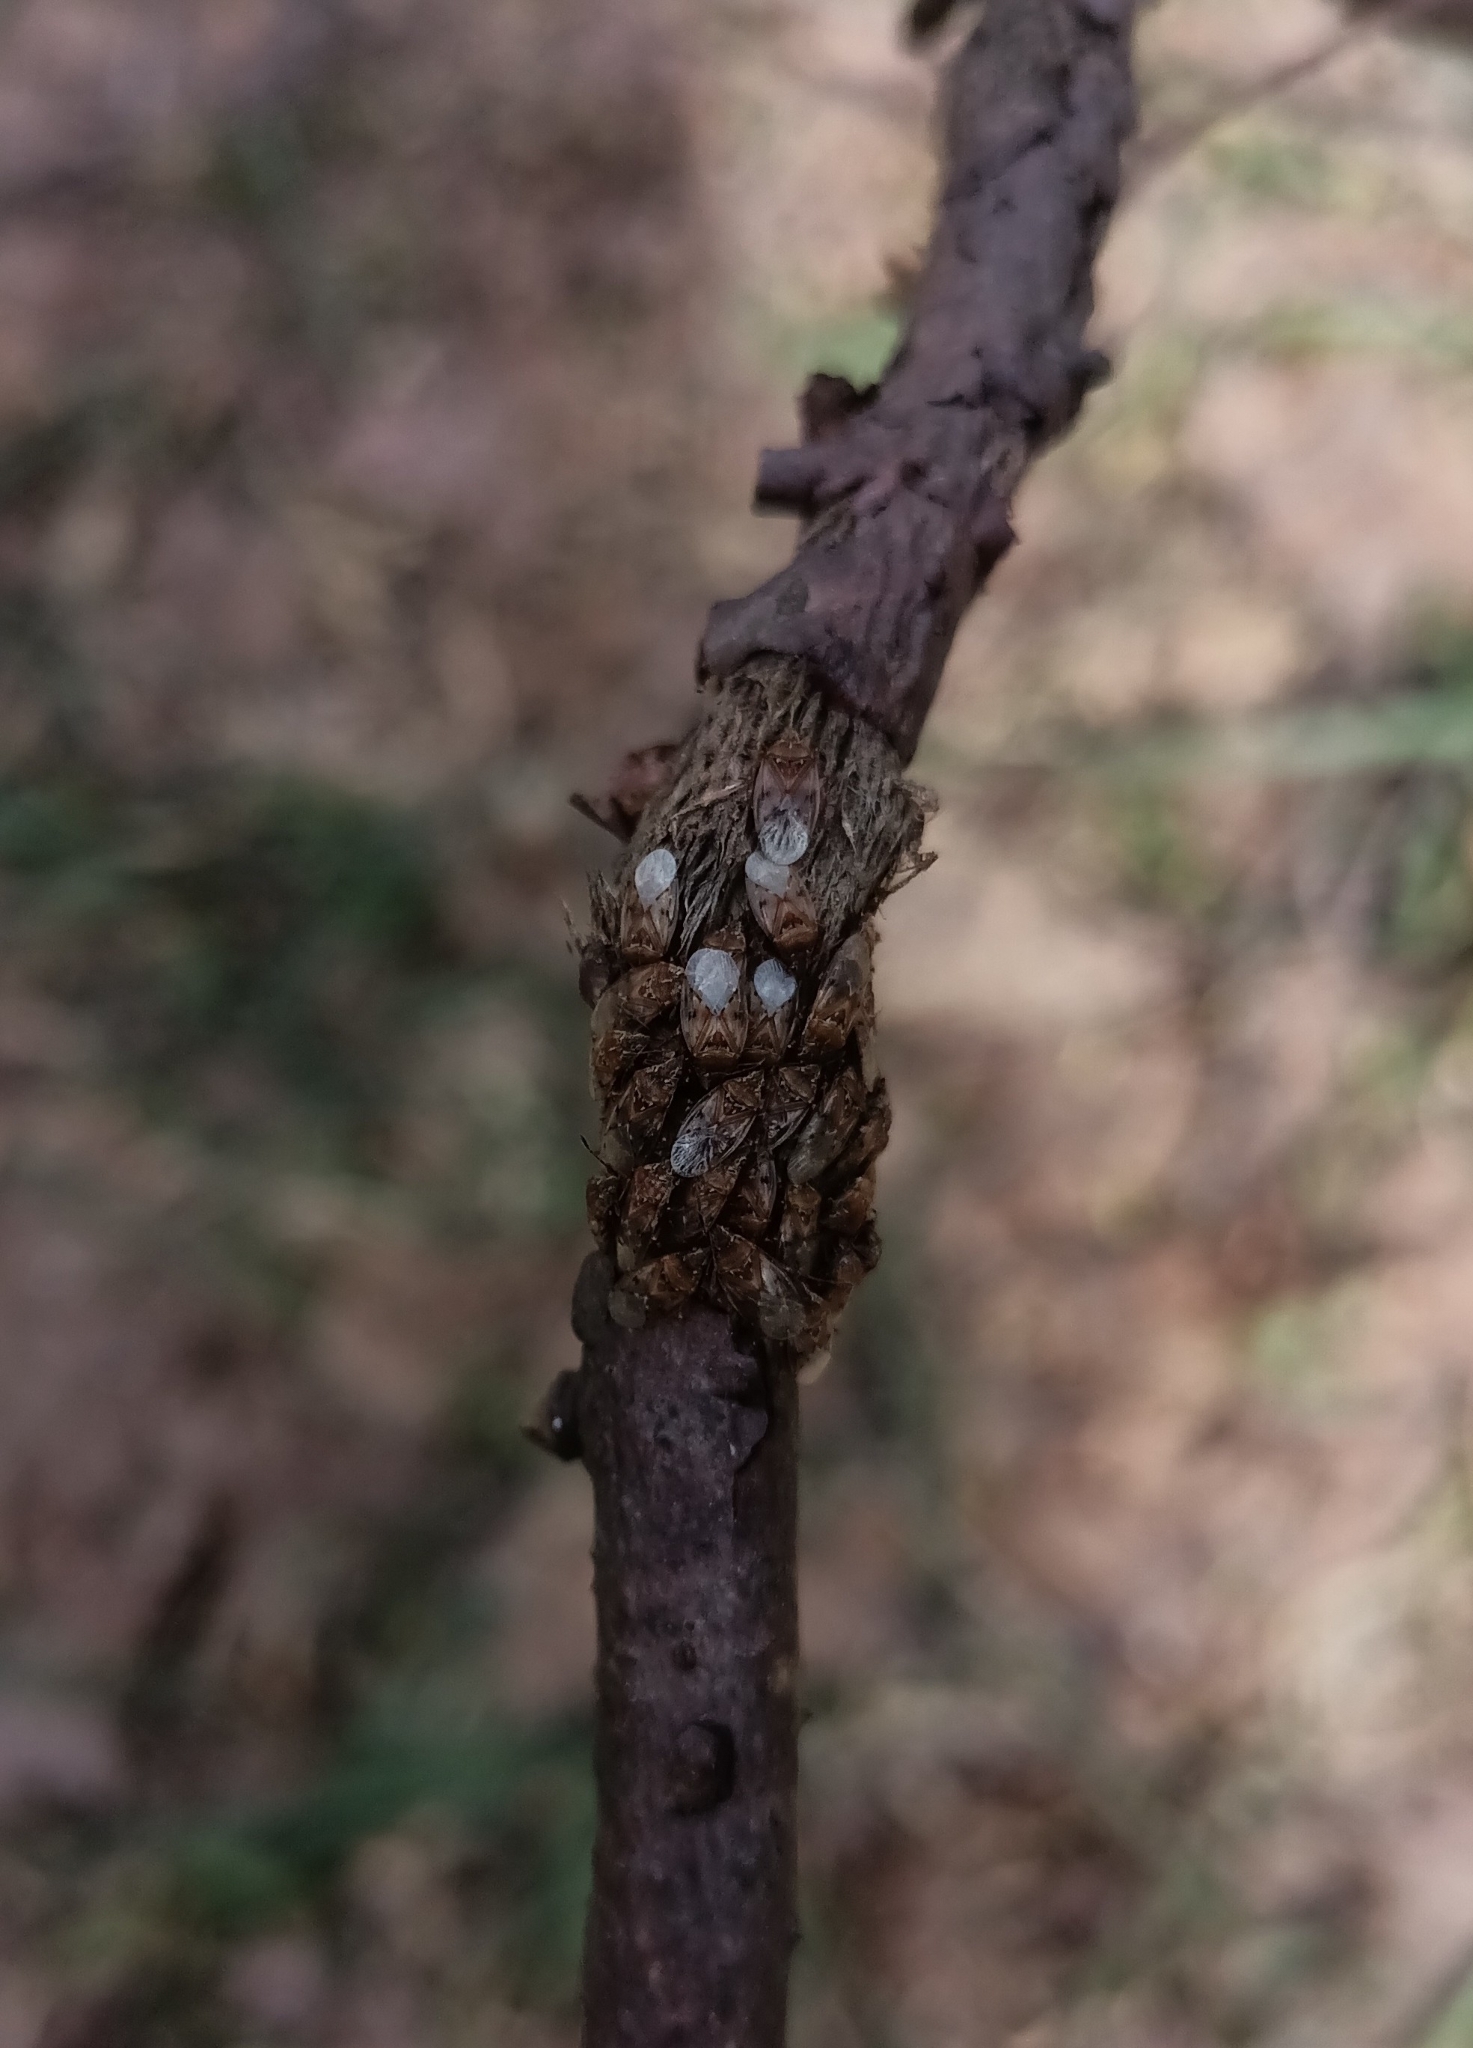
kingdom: Animalia
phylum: Arthropoda
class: Insecta
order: Hemiptera
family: Lygaeidae
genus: Kleidocerys
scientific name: Kleidocerys resedae
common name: Birch catkin bug
